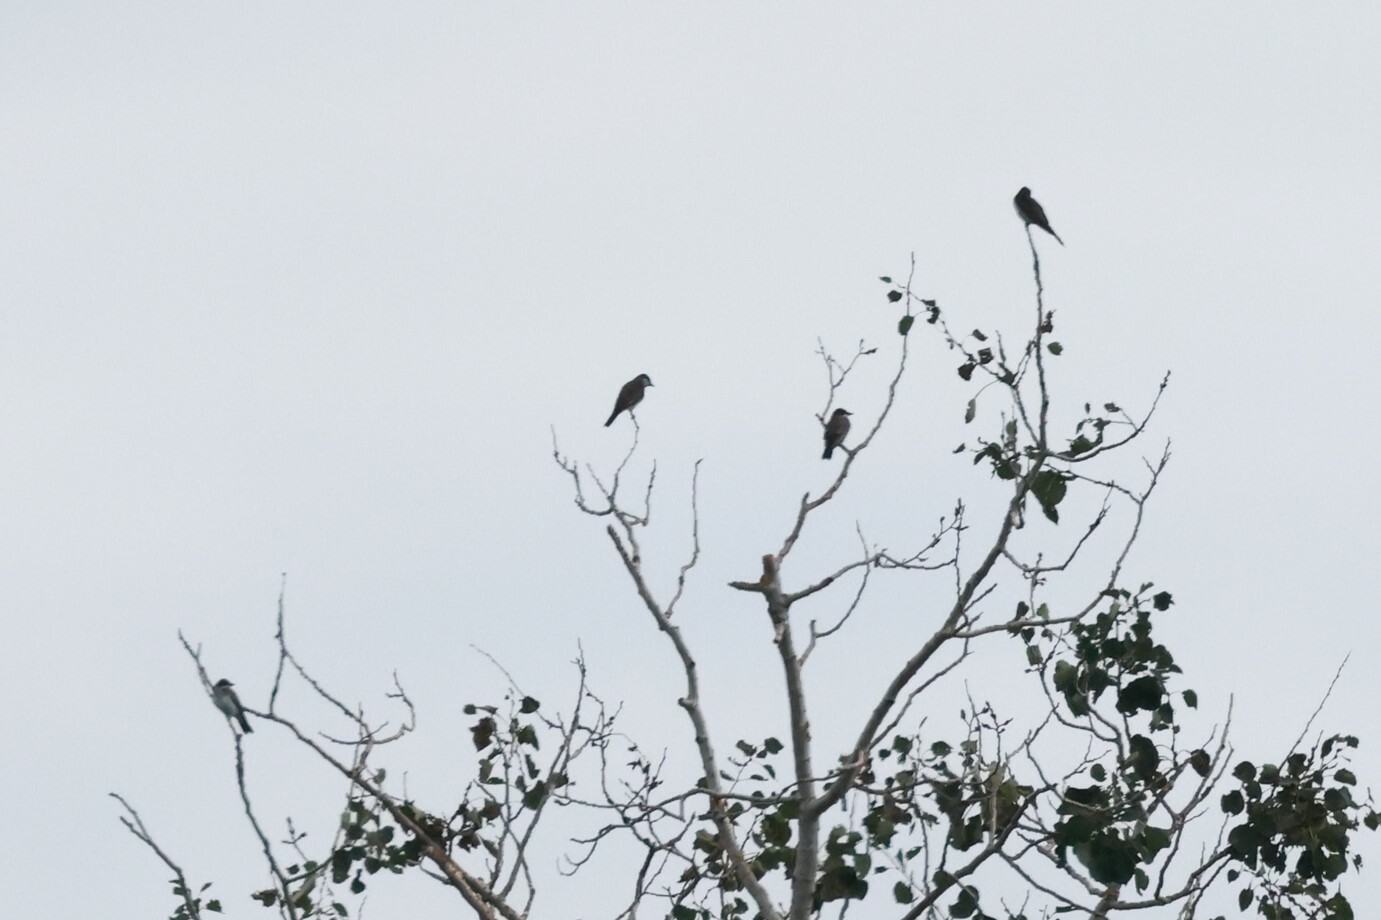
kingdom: Animalia
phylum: Chordata
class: Aves
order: Passeriformes
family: Tyrannidae
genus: Tyrannus
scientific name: Tyrannus tyrannus
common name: Eastern kingbird
